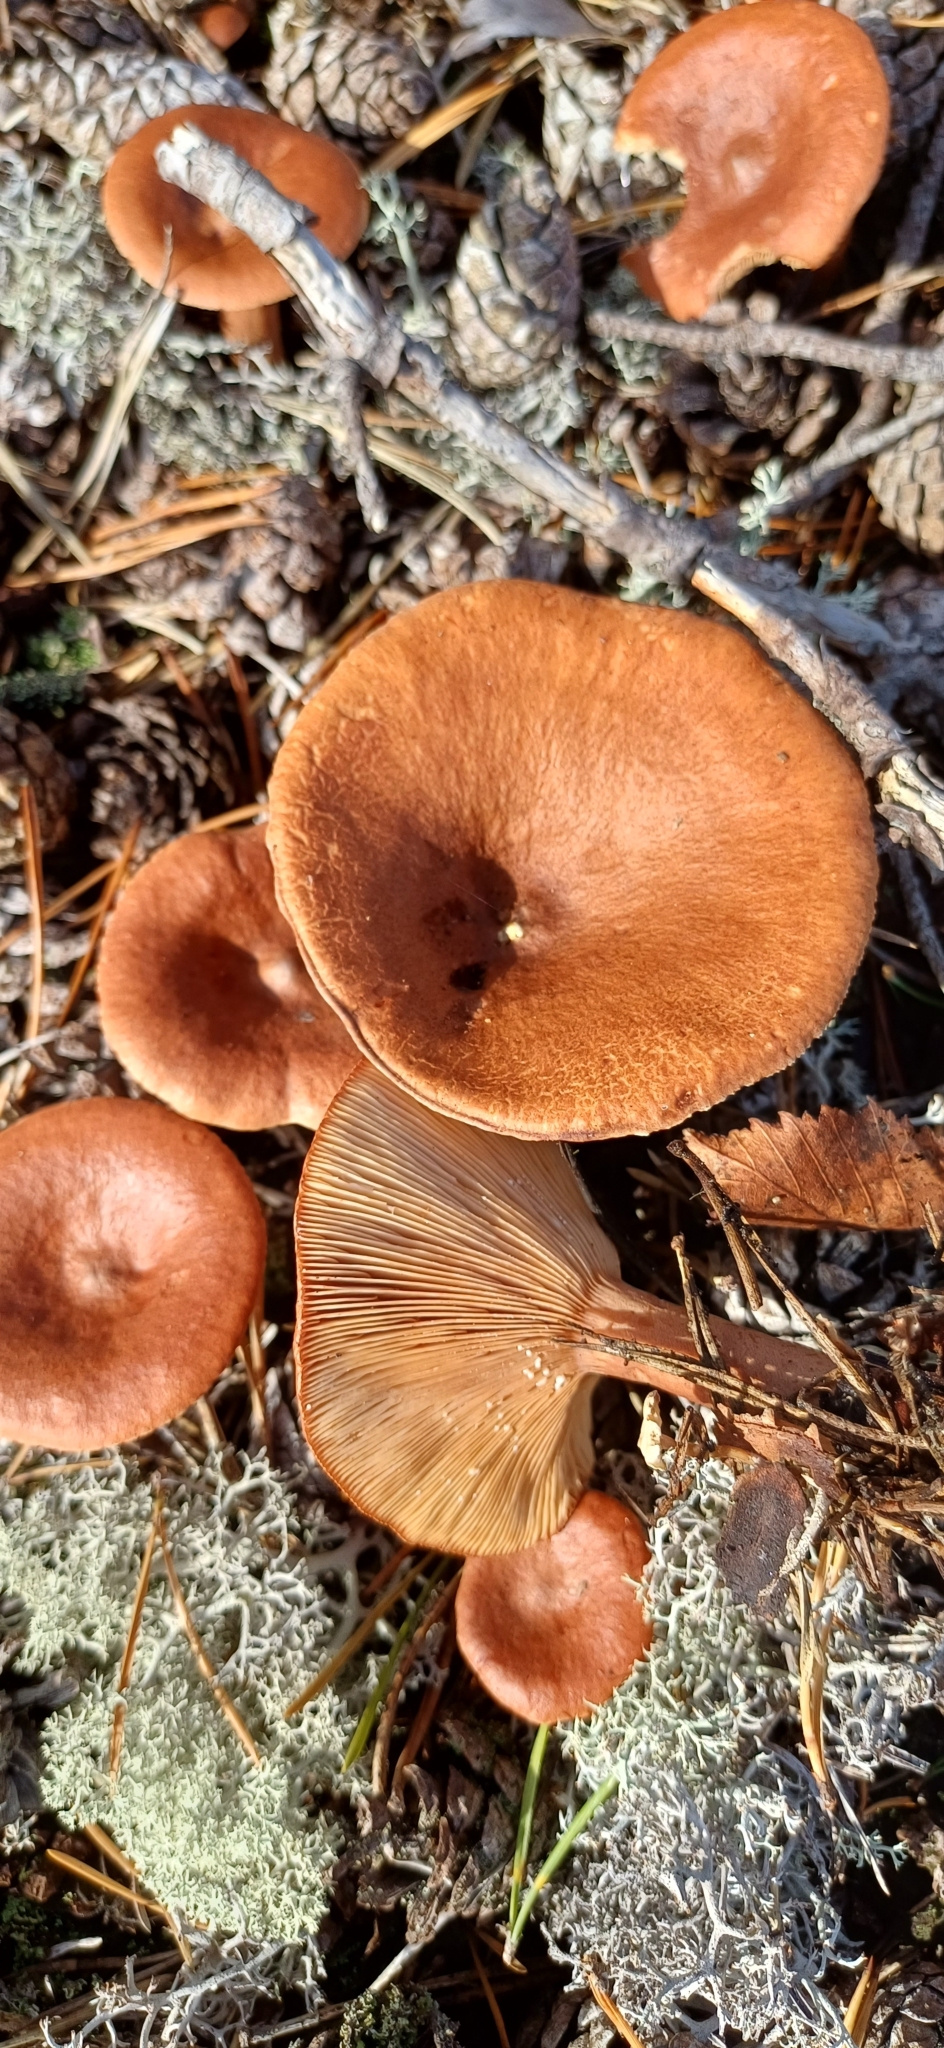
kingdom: Fungi
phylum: Basidiomycota
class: Agaricomycetes
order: Russulales
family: Russulaceae
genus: Lactarius
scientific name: Lactarius rufus
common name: Rufous milk-cap
